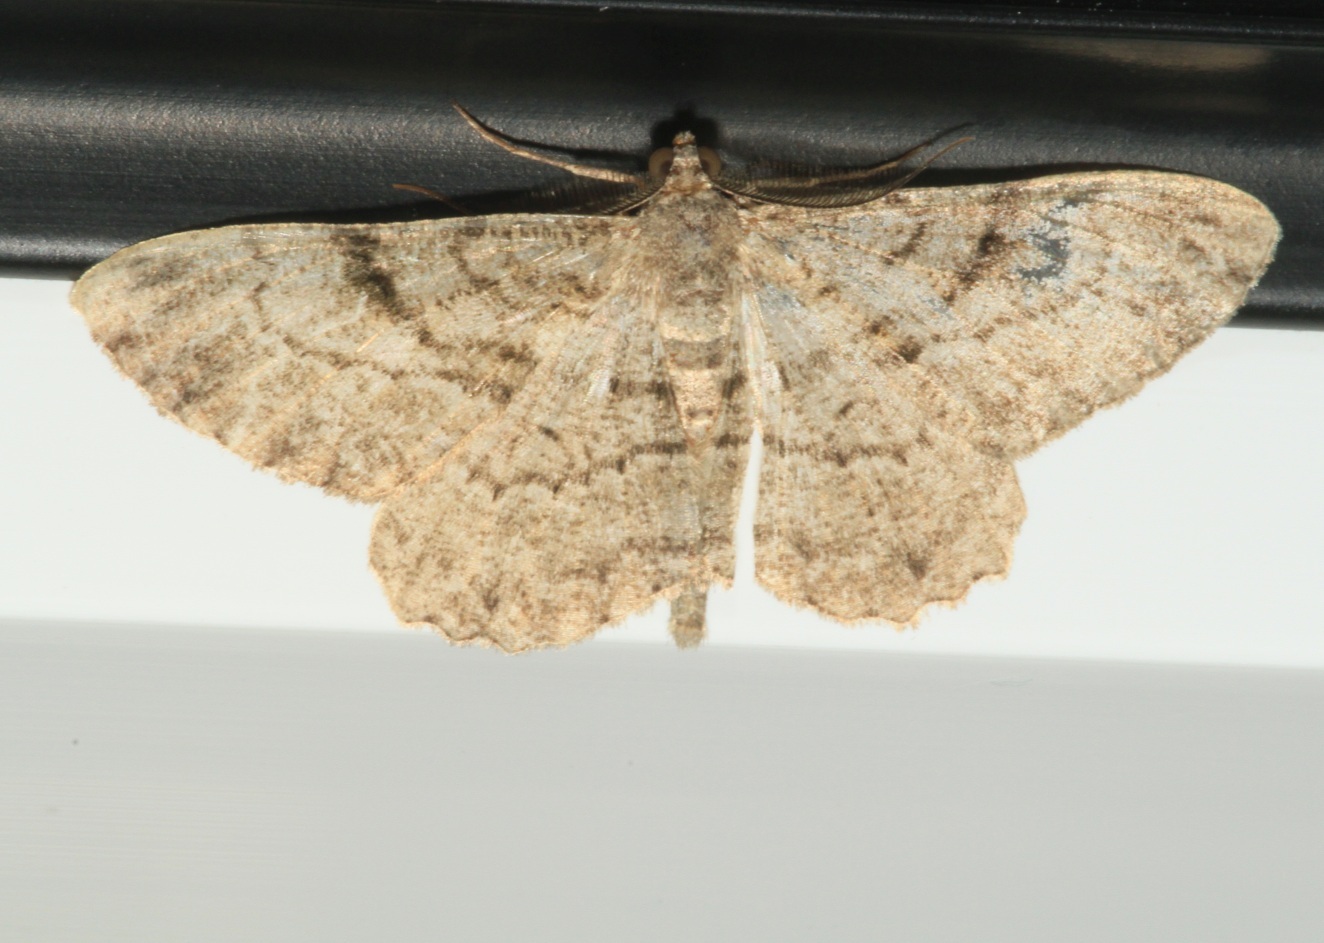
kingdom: Animalia
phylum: Arthropoda
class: Insecta
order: Lepidoptera
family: Geometridae
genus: Peribatodes
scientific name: Peribatodes rhomboidaria
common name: Willow beauty
